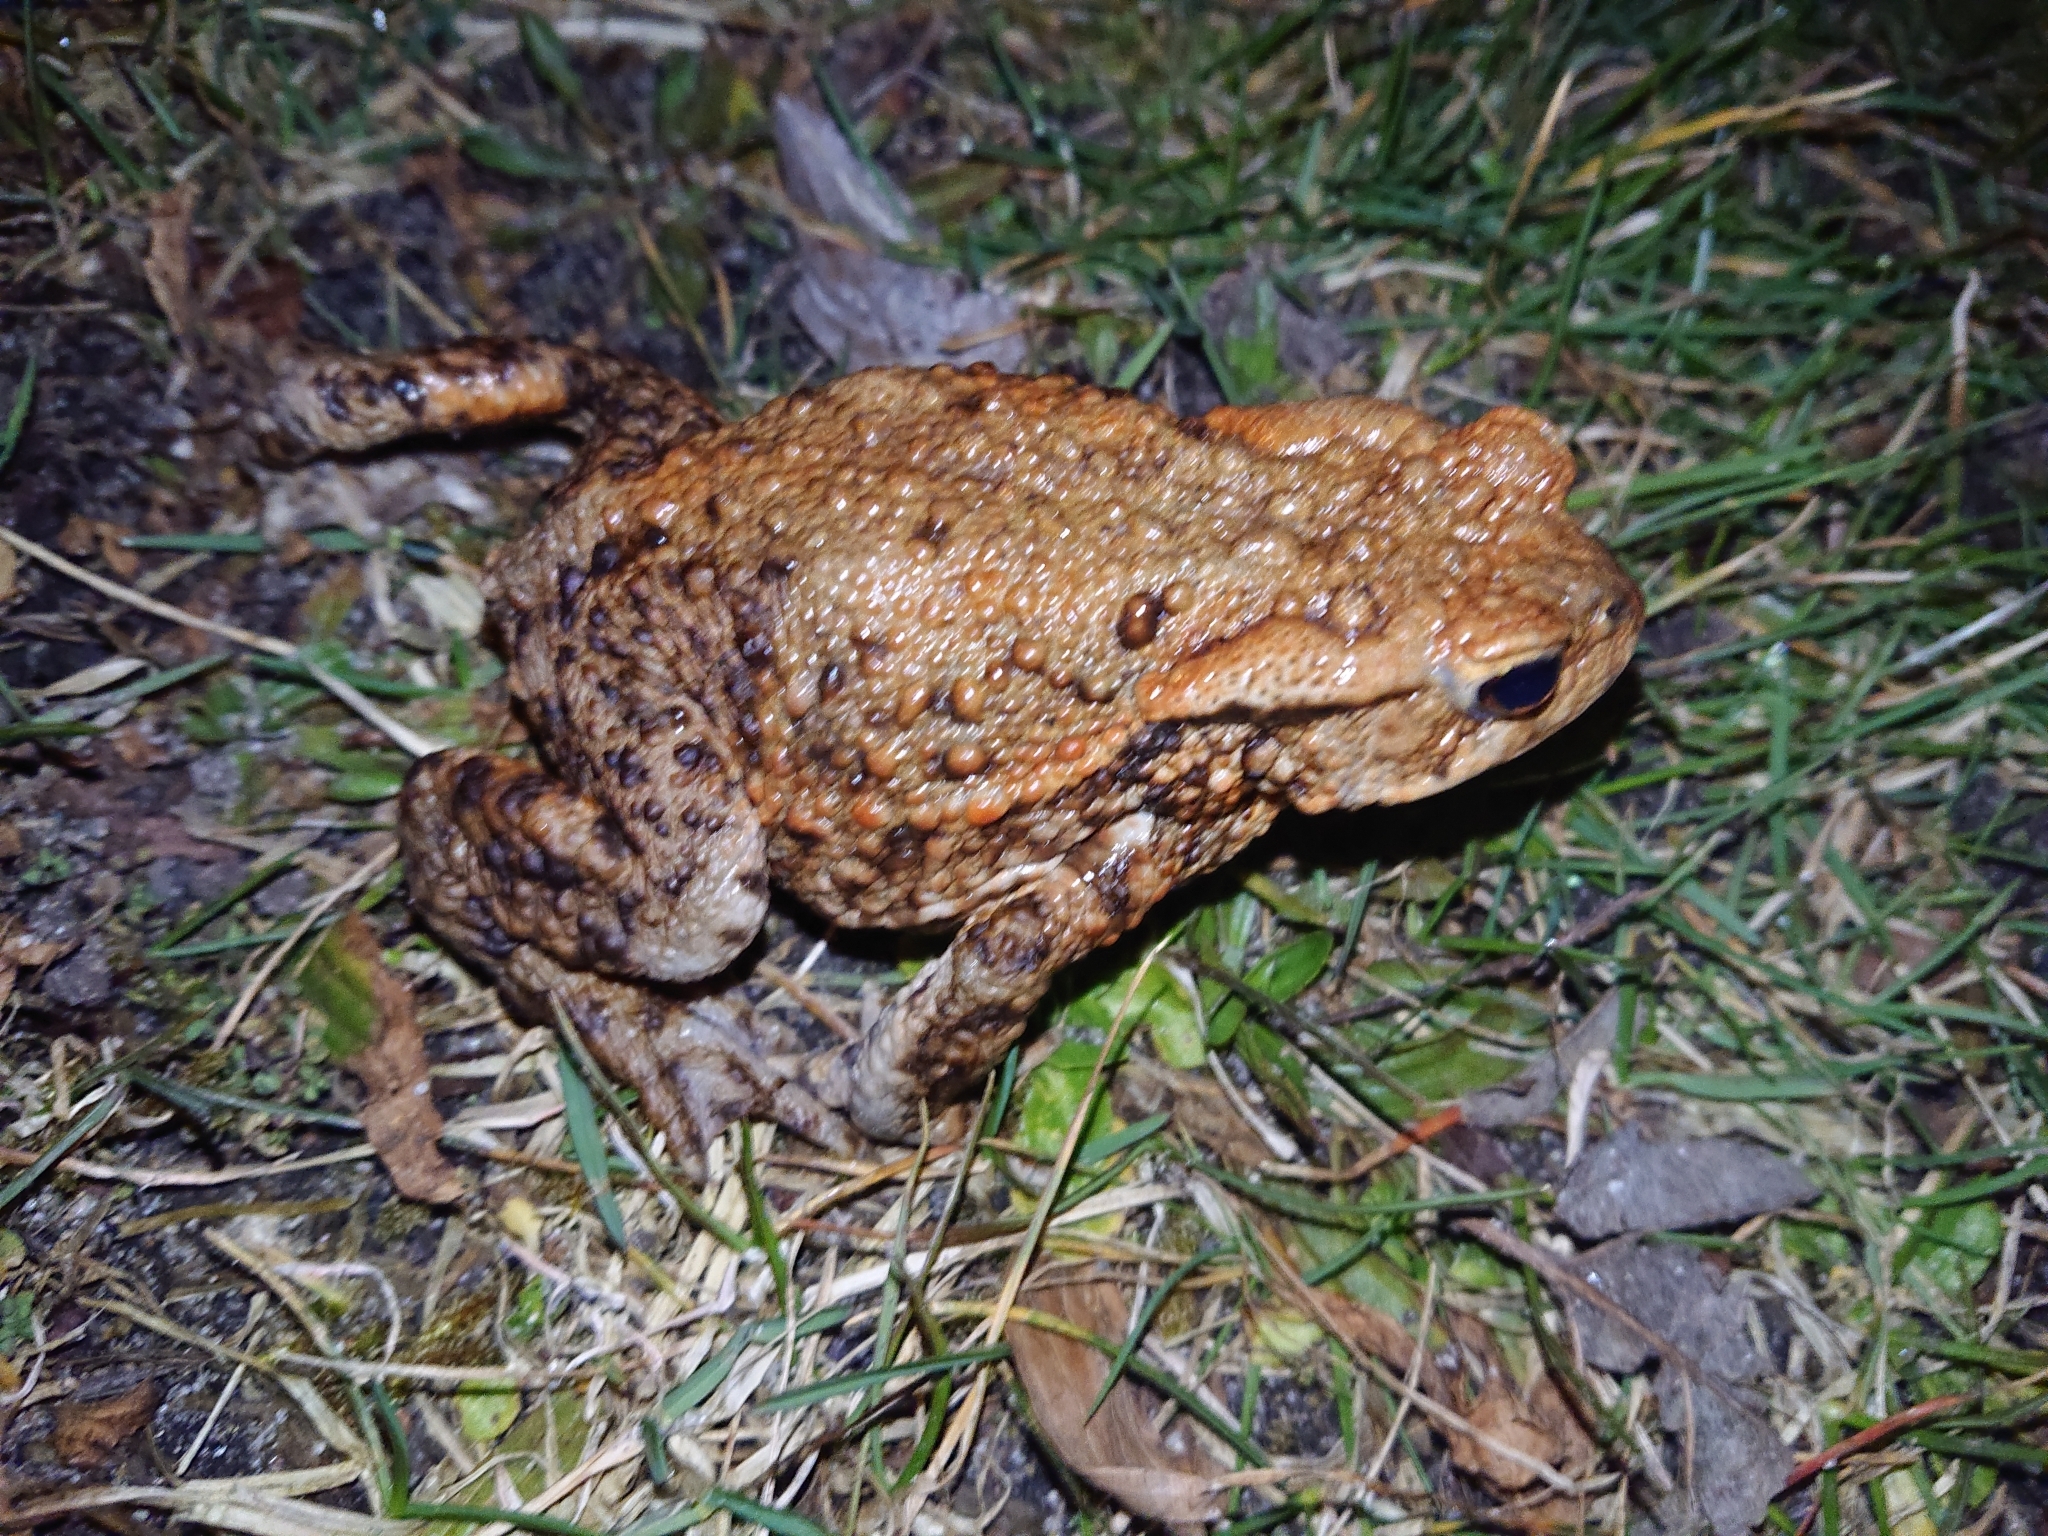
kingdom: Animalia
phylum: Chordata
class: Amphibia
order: Anura
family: Bufonidae
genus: Bufo
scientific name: Bufo bufo
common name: Common toad
